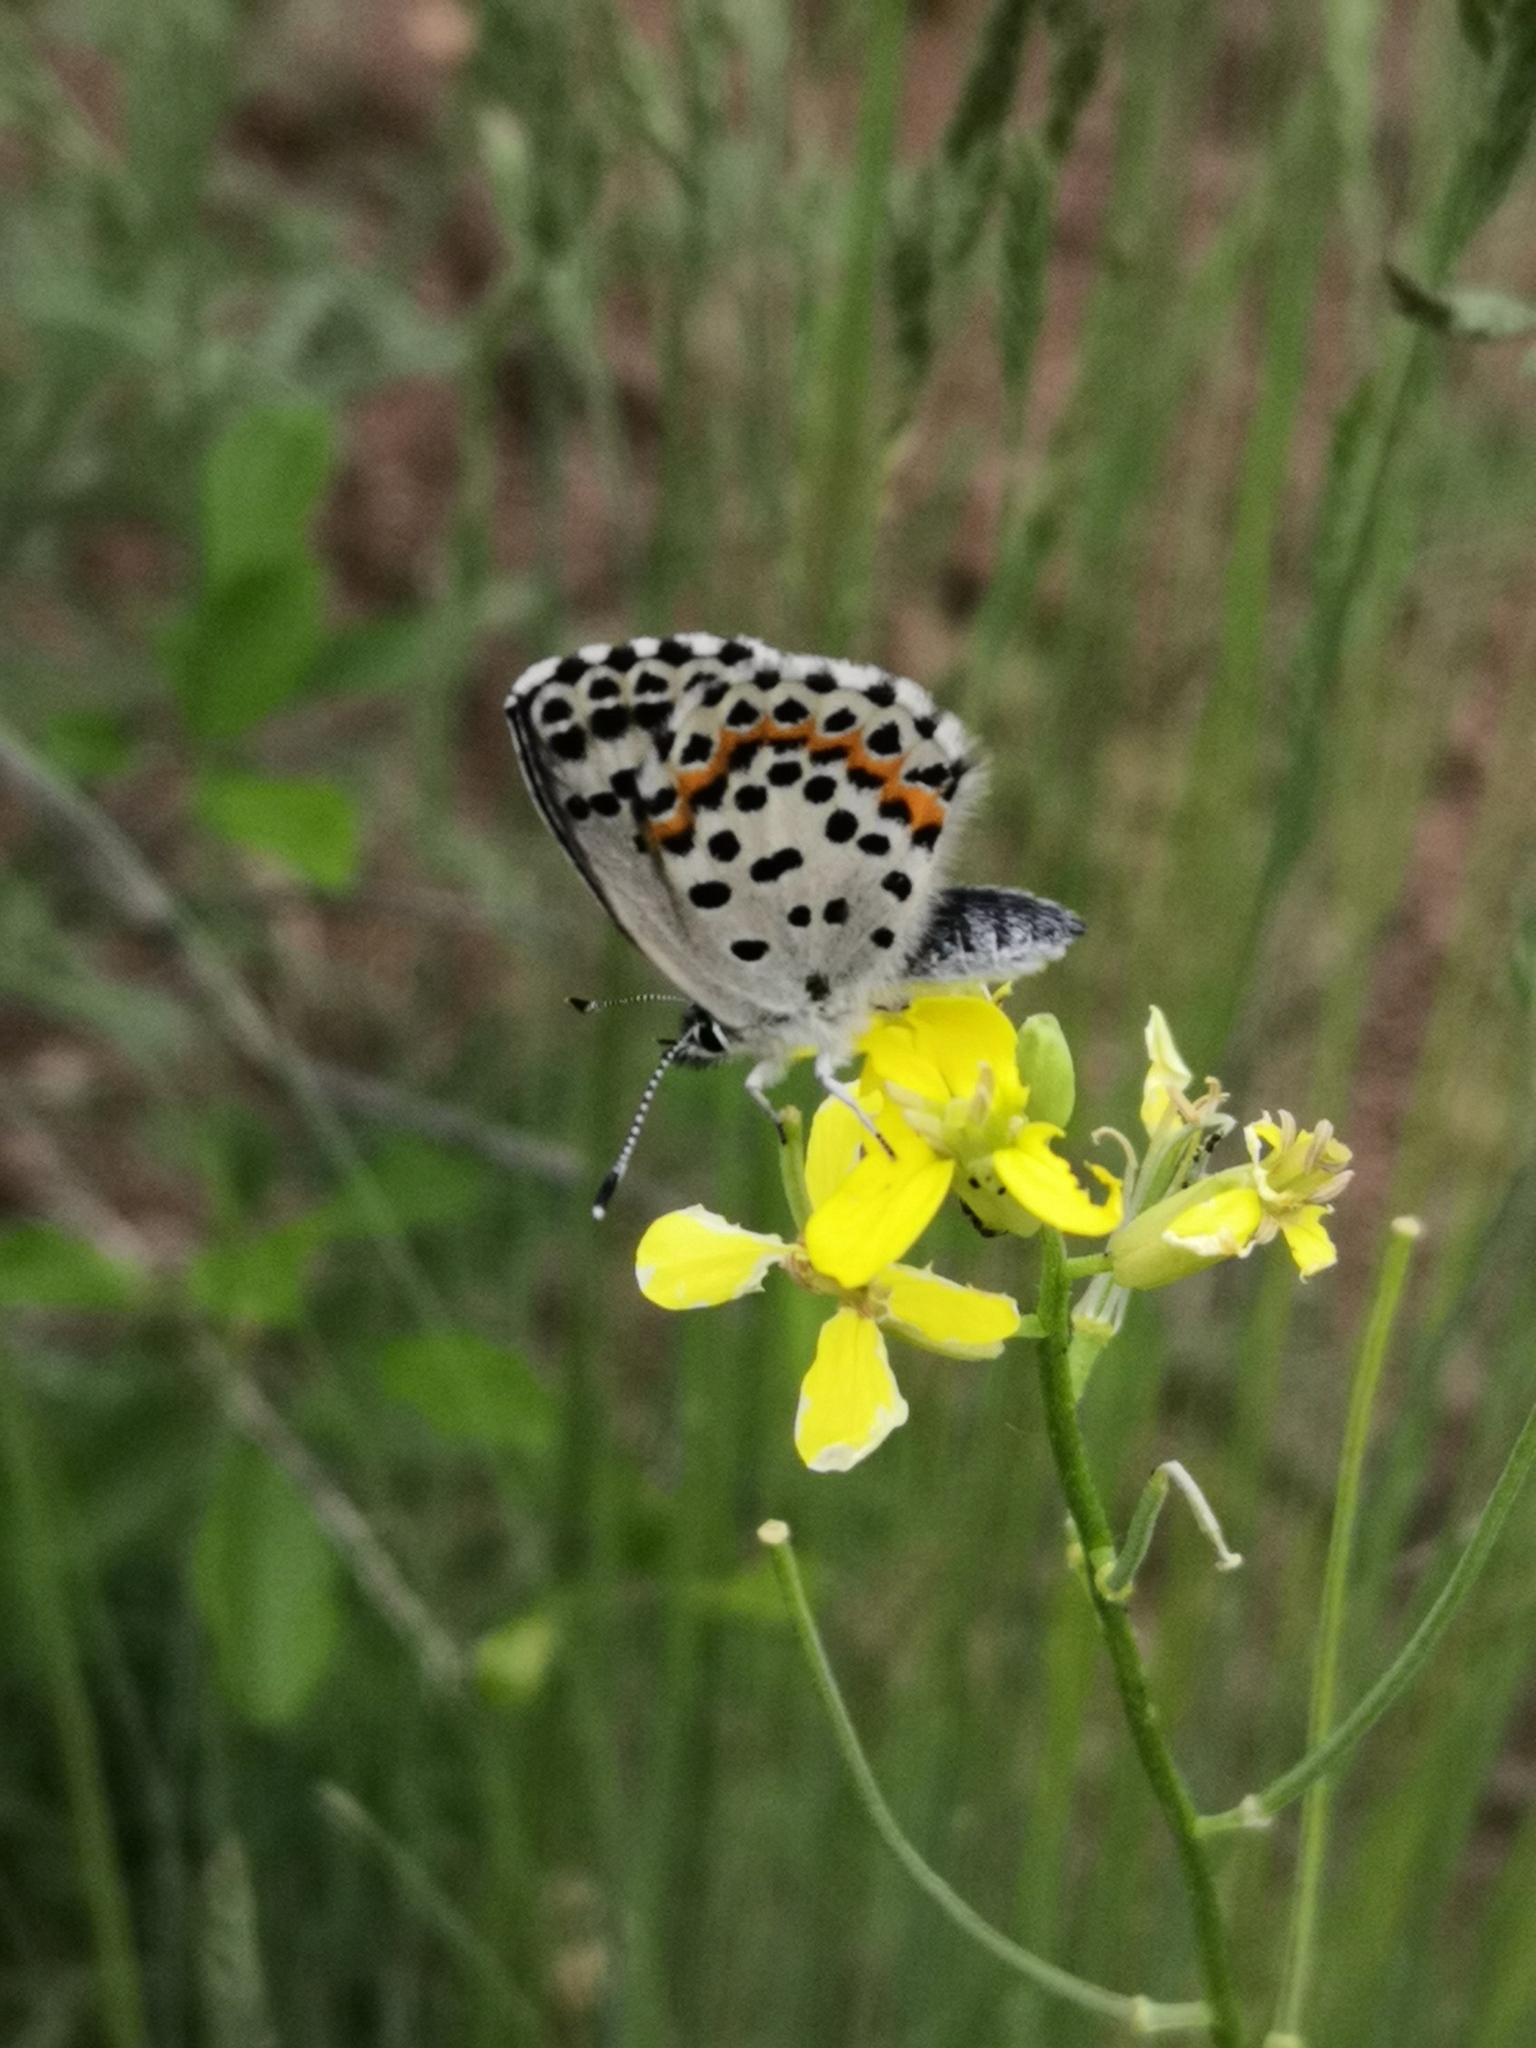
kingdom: Animalia
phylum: Arthropoda
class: Insecta
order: Lepidoptera
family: Lycaenidae
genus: Scolitantides
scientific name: Scolitantides orion
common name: Chequered blue
